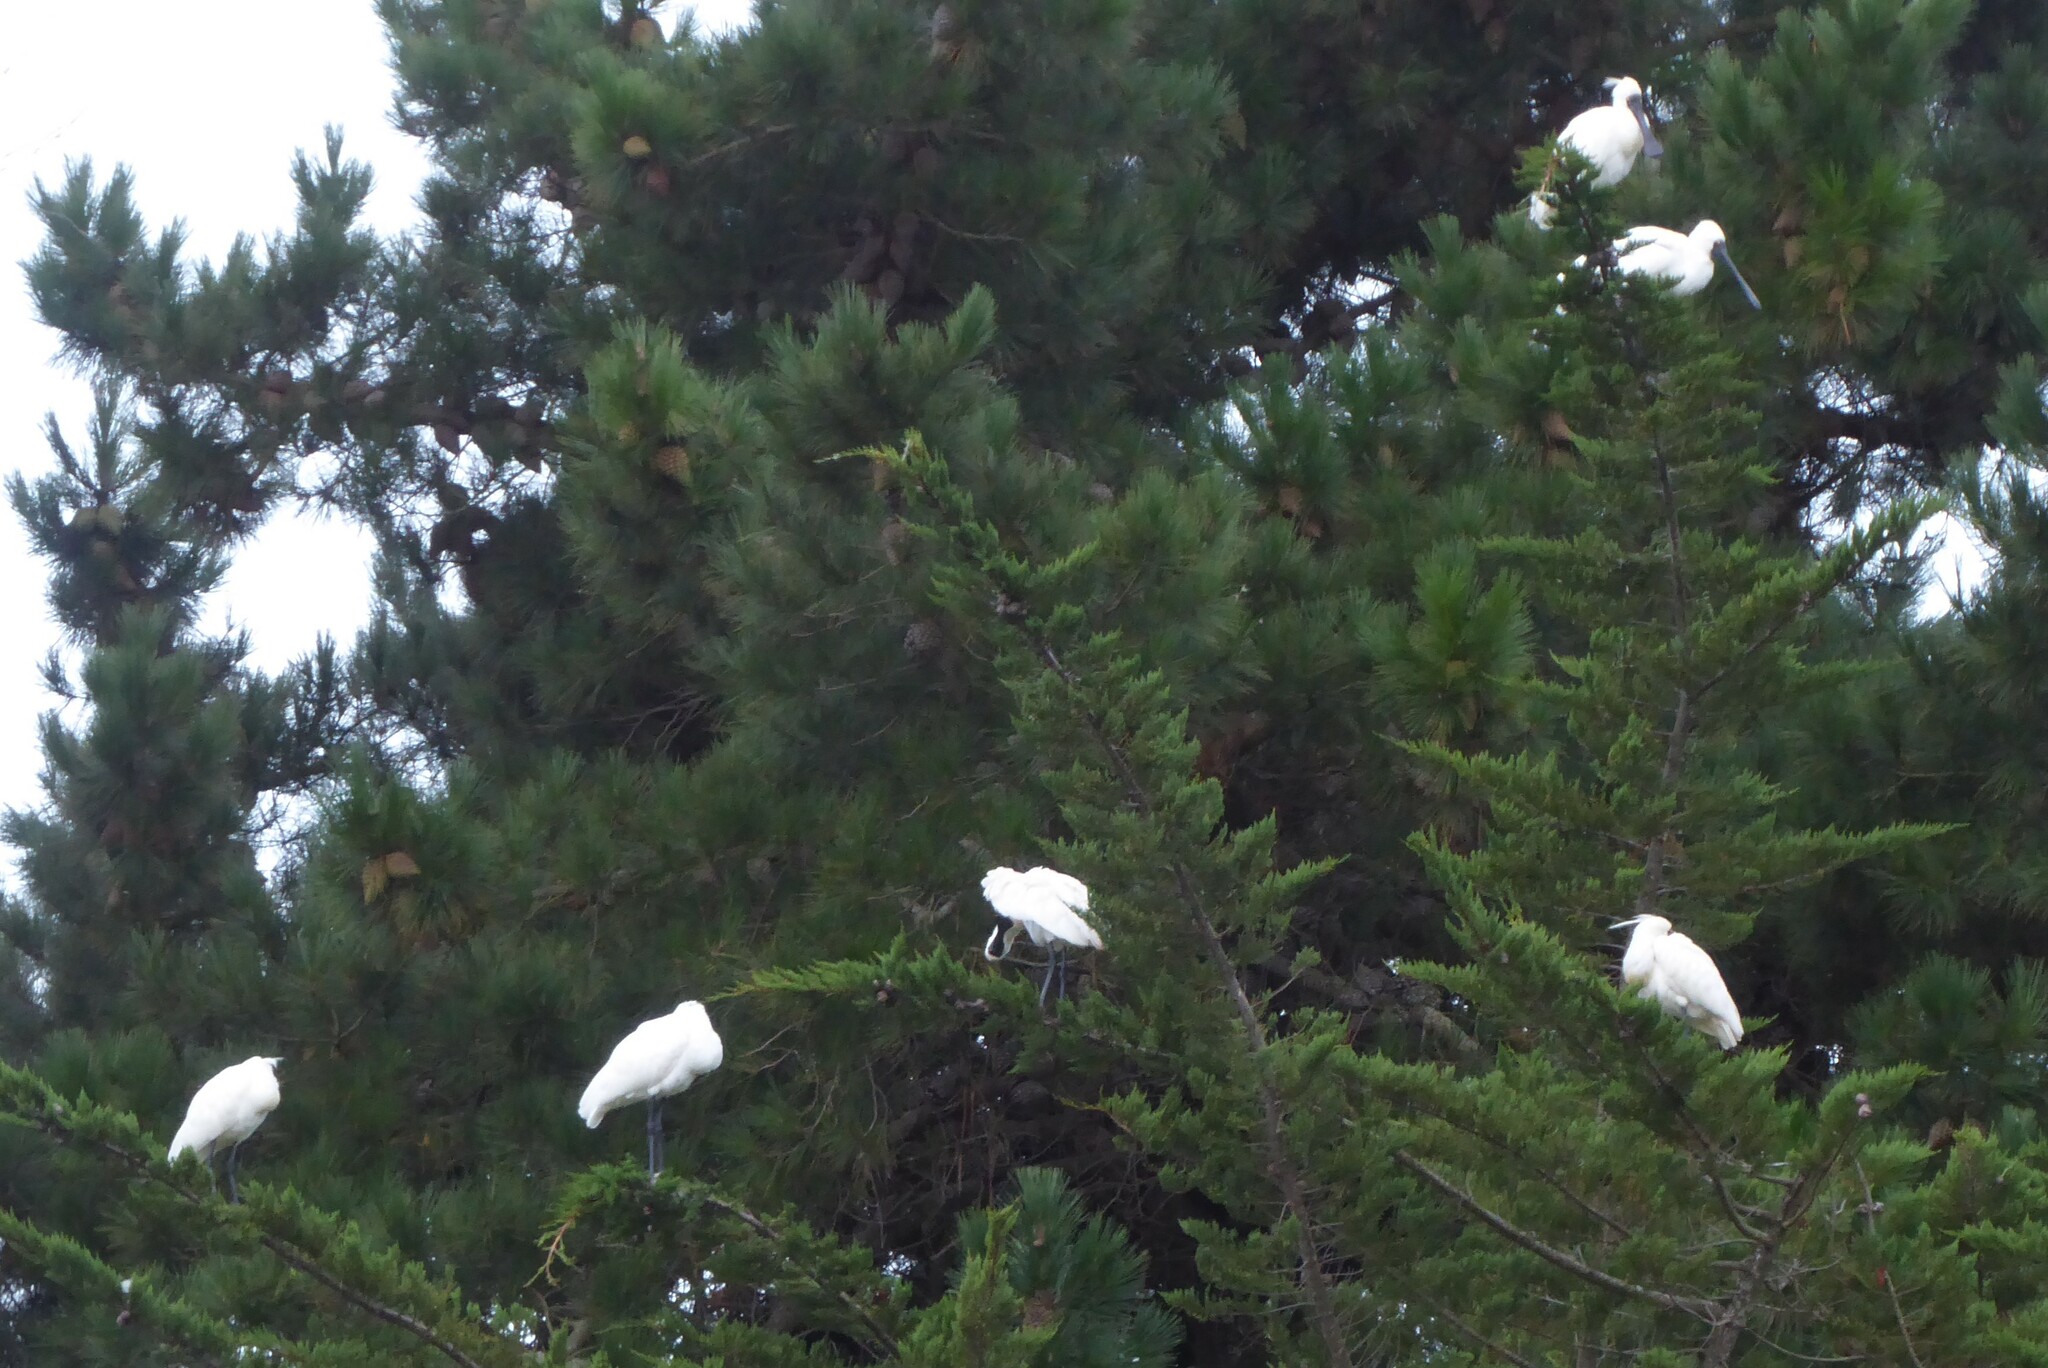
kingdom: Animalia
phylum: Chordata
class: Aves
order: Pelecaniformes
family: Threskiornithidae
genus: Platalea
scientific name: Platalea regia
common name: Royal spoonbill
